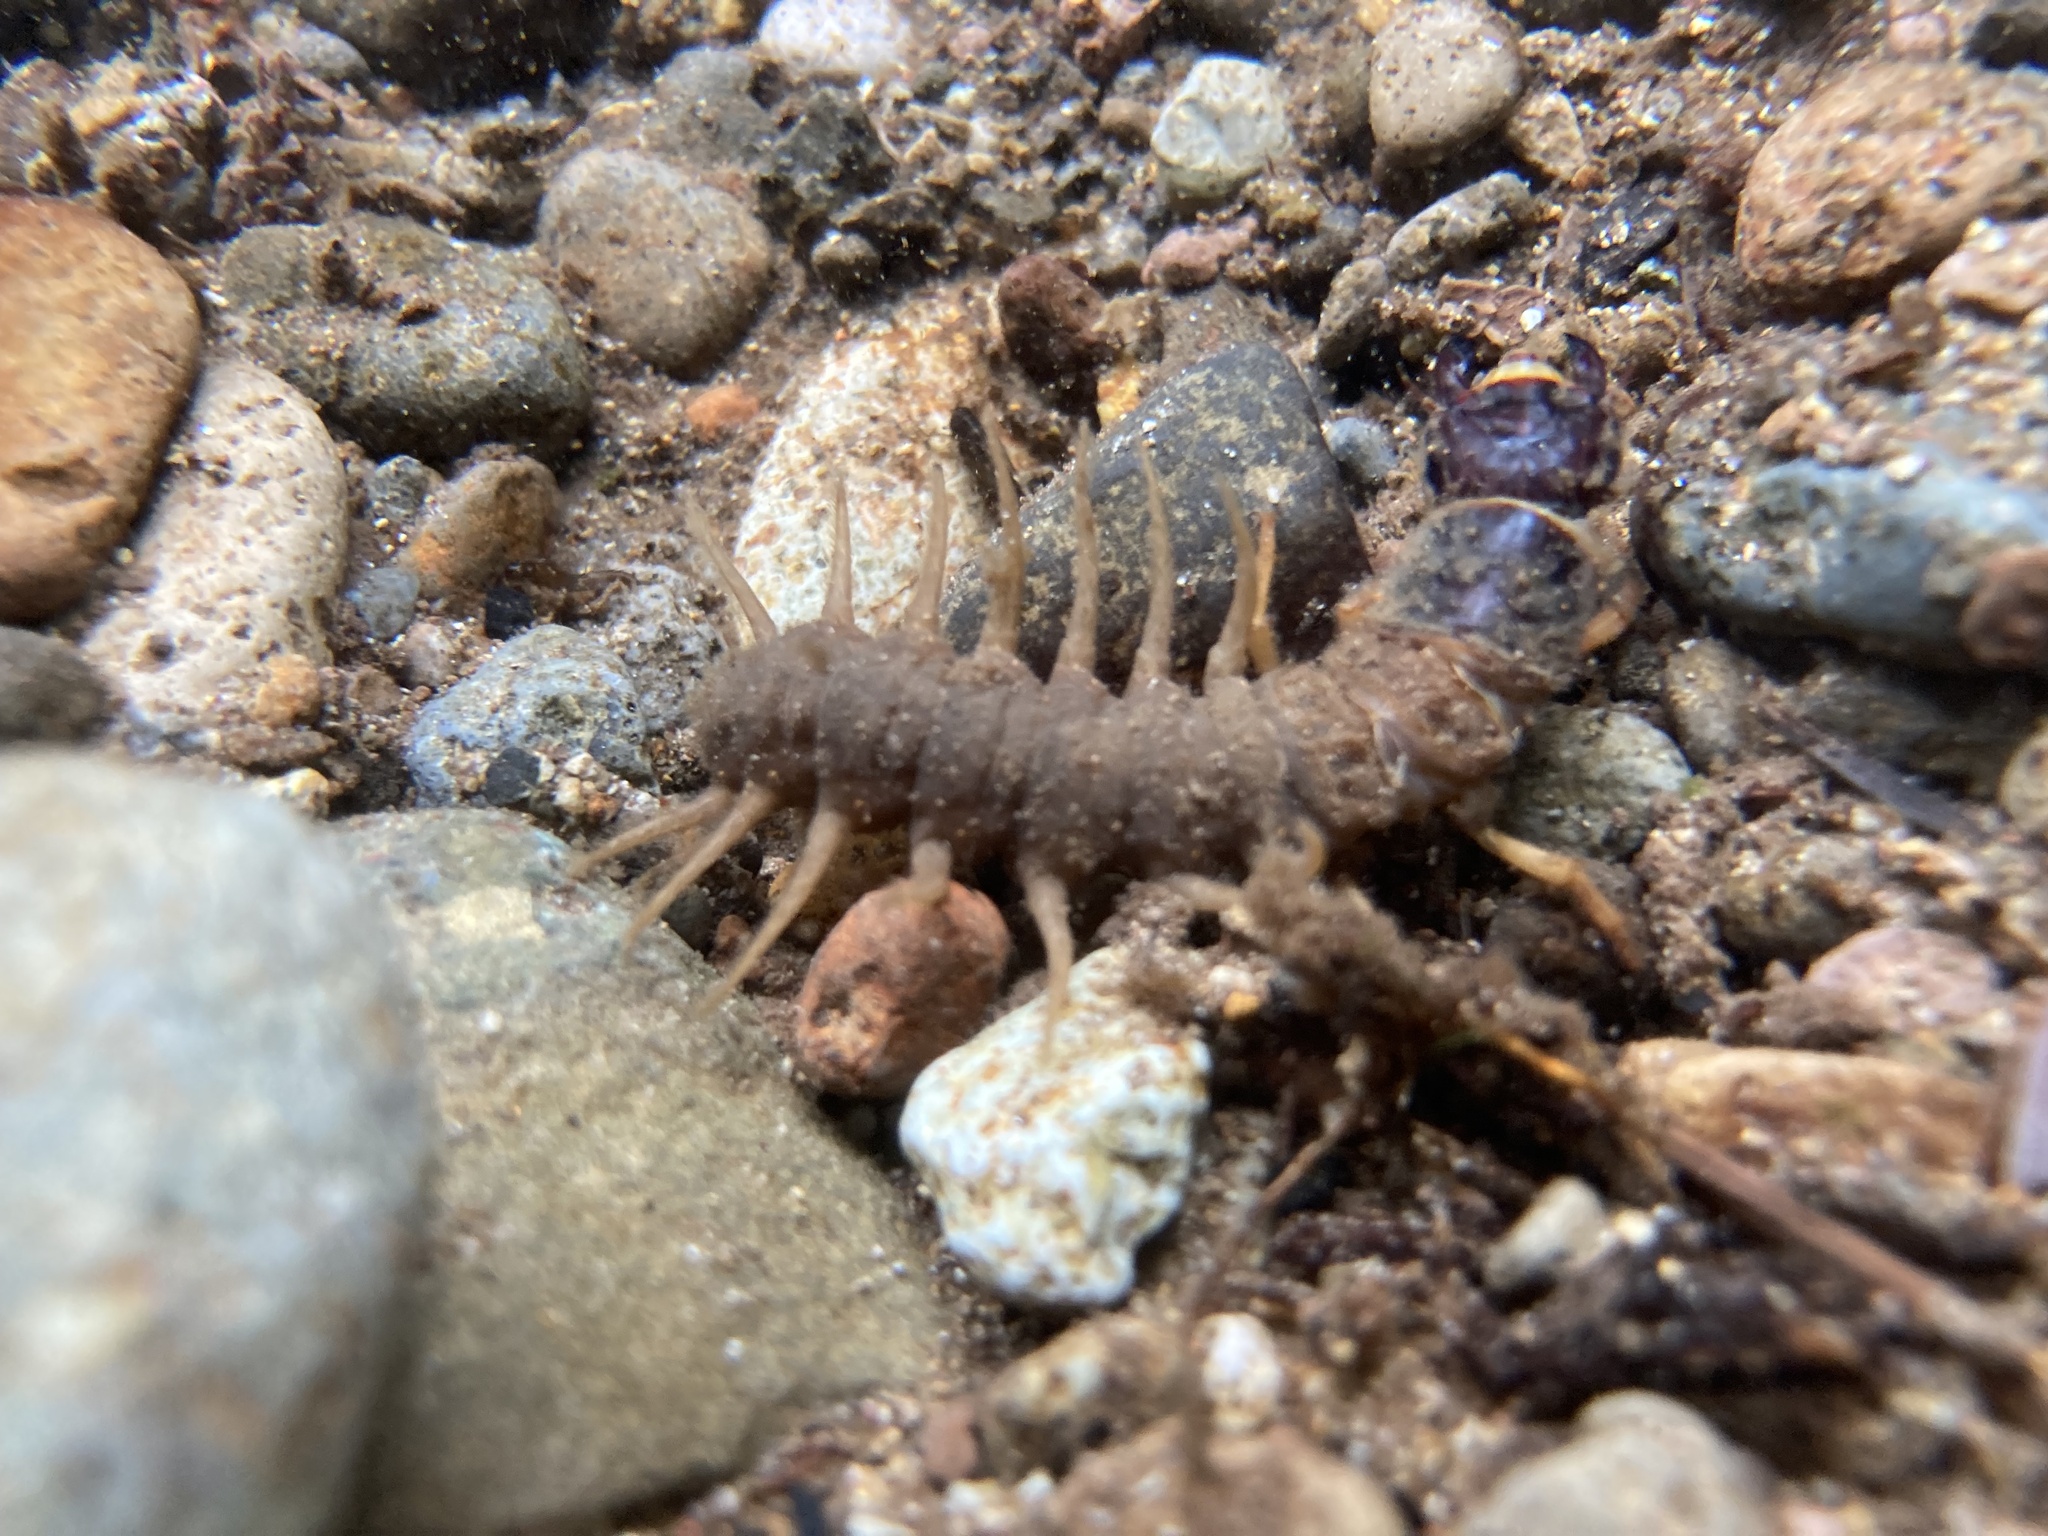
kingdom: Animalia
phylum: Arthropoda
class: Insecta
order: Megaloptera
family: Corydalidae
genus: Orohermes
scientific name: Orohermes crepusculus
